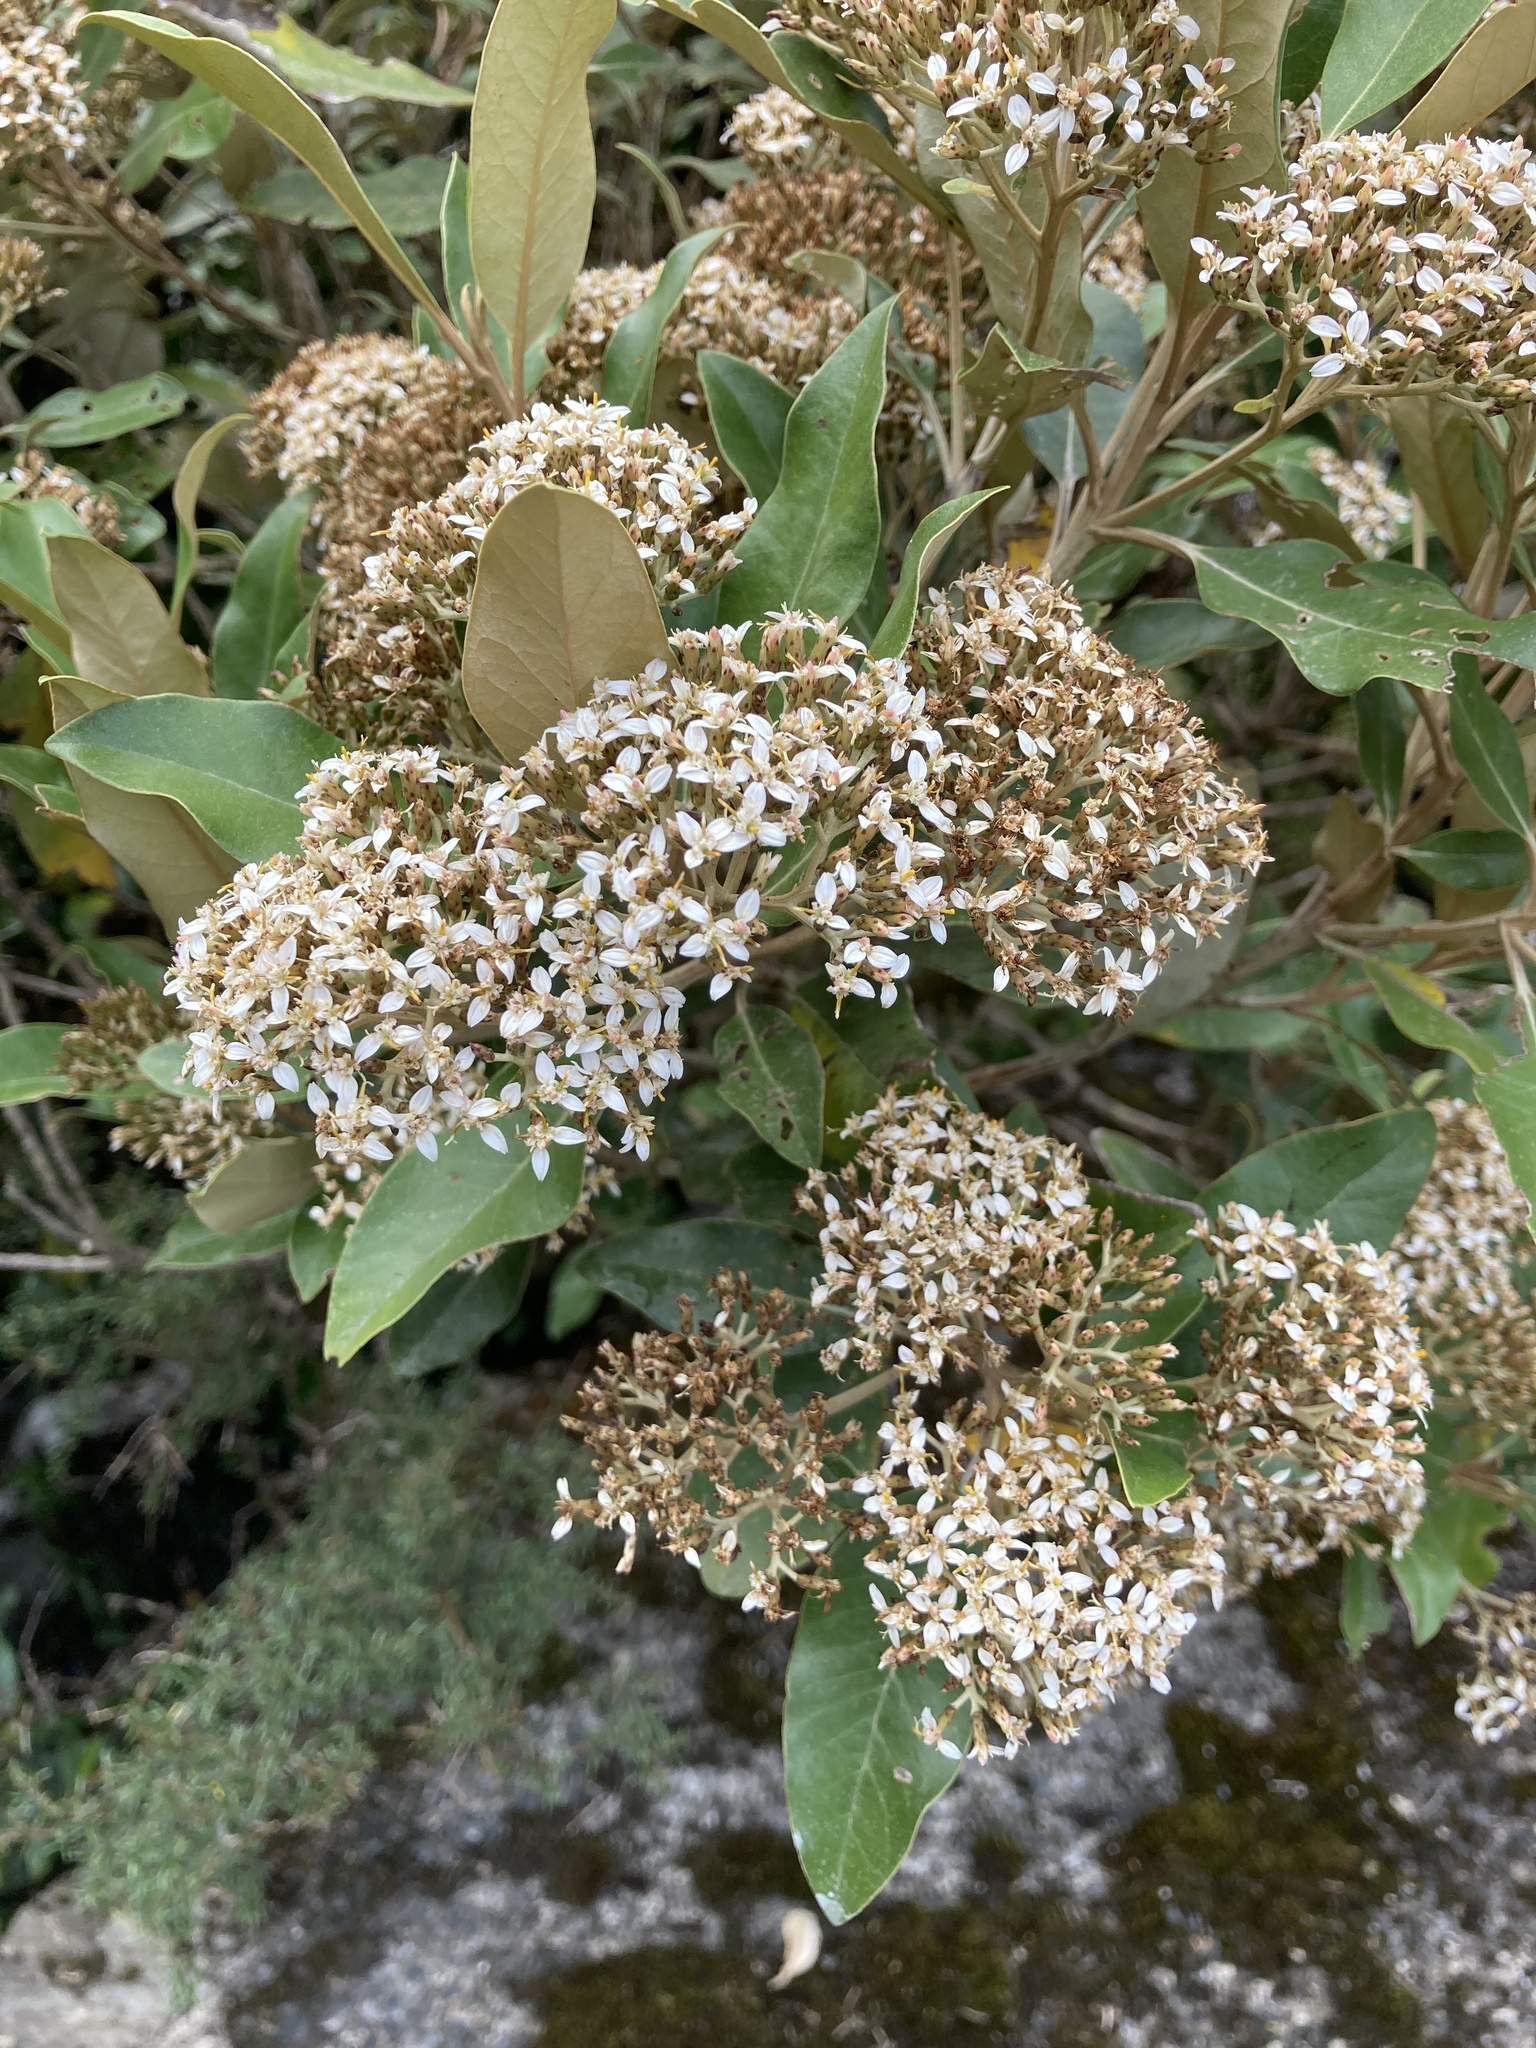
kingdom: Plantae
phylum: Tracheophyta
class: Magnoliopsida
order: Asterales
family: Asteraceae
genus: Olearia
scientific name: Olearia avicenniifolia
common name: Mangrove-leaf daisybush
